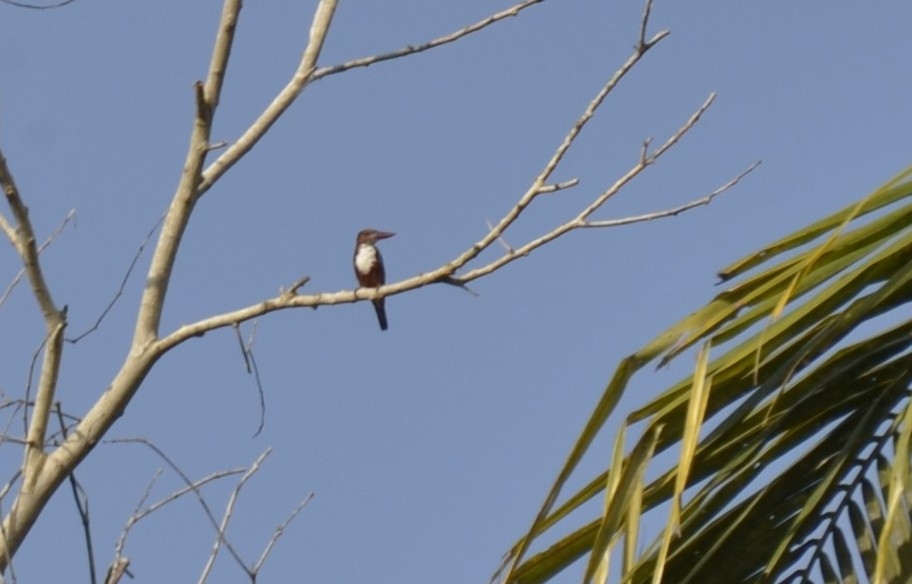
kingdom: Animalia
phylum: Chordata
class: Aves
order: Coraciiformes
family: Alcedinidae
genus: Halcyon
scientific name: Halcyon smyrnensis
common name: White-throated kingfisher
